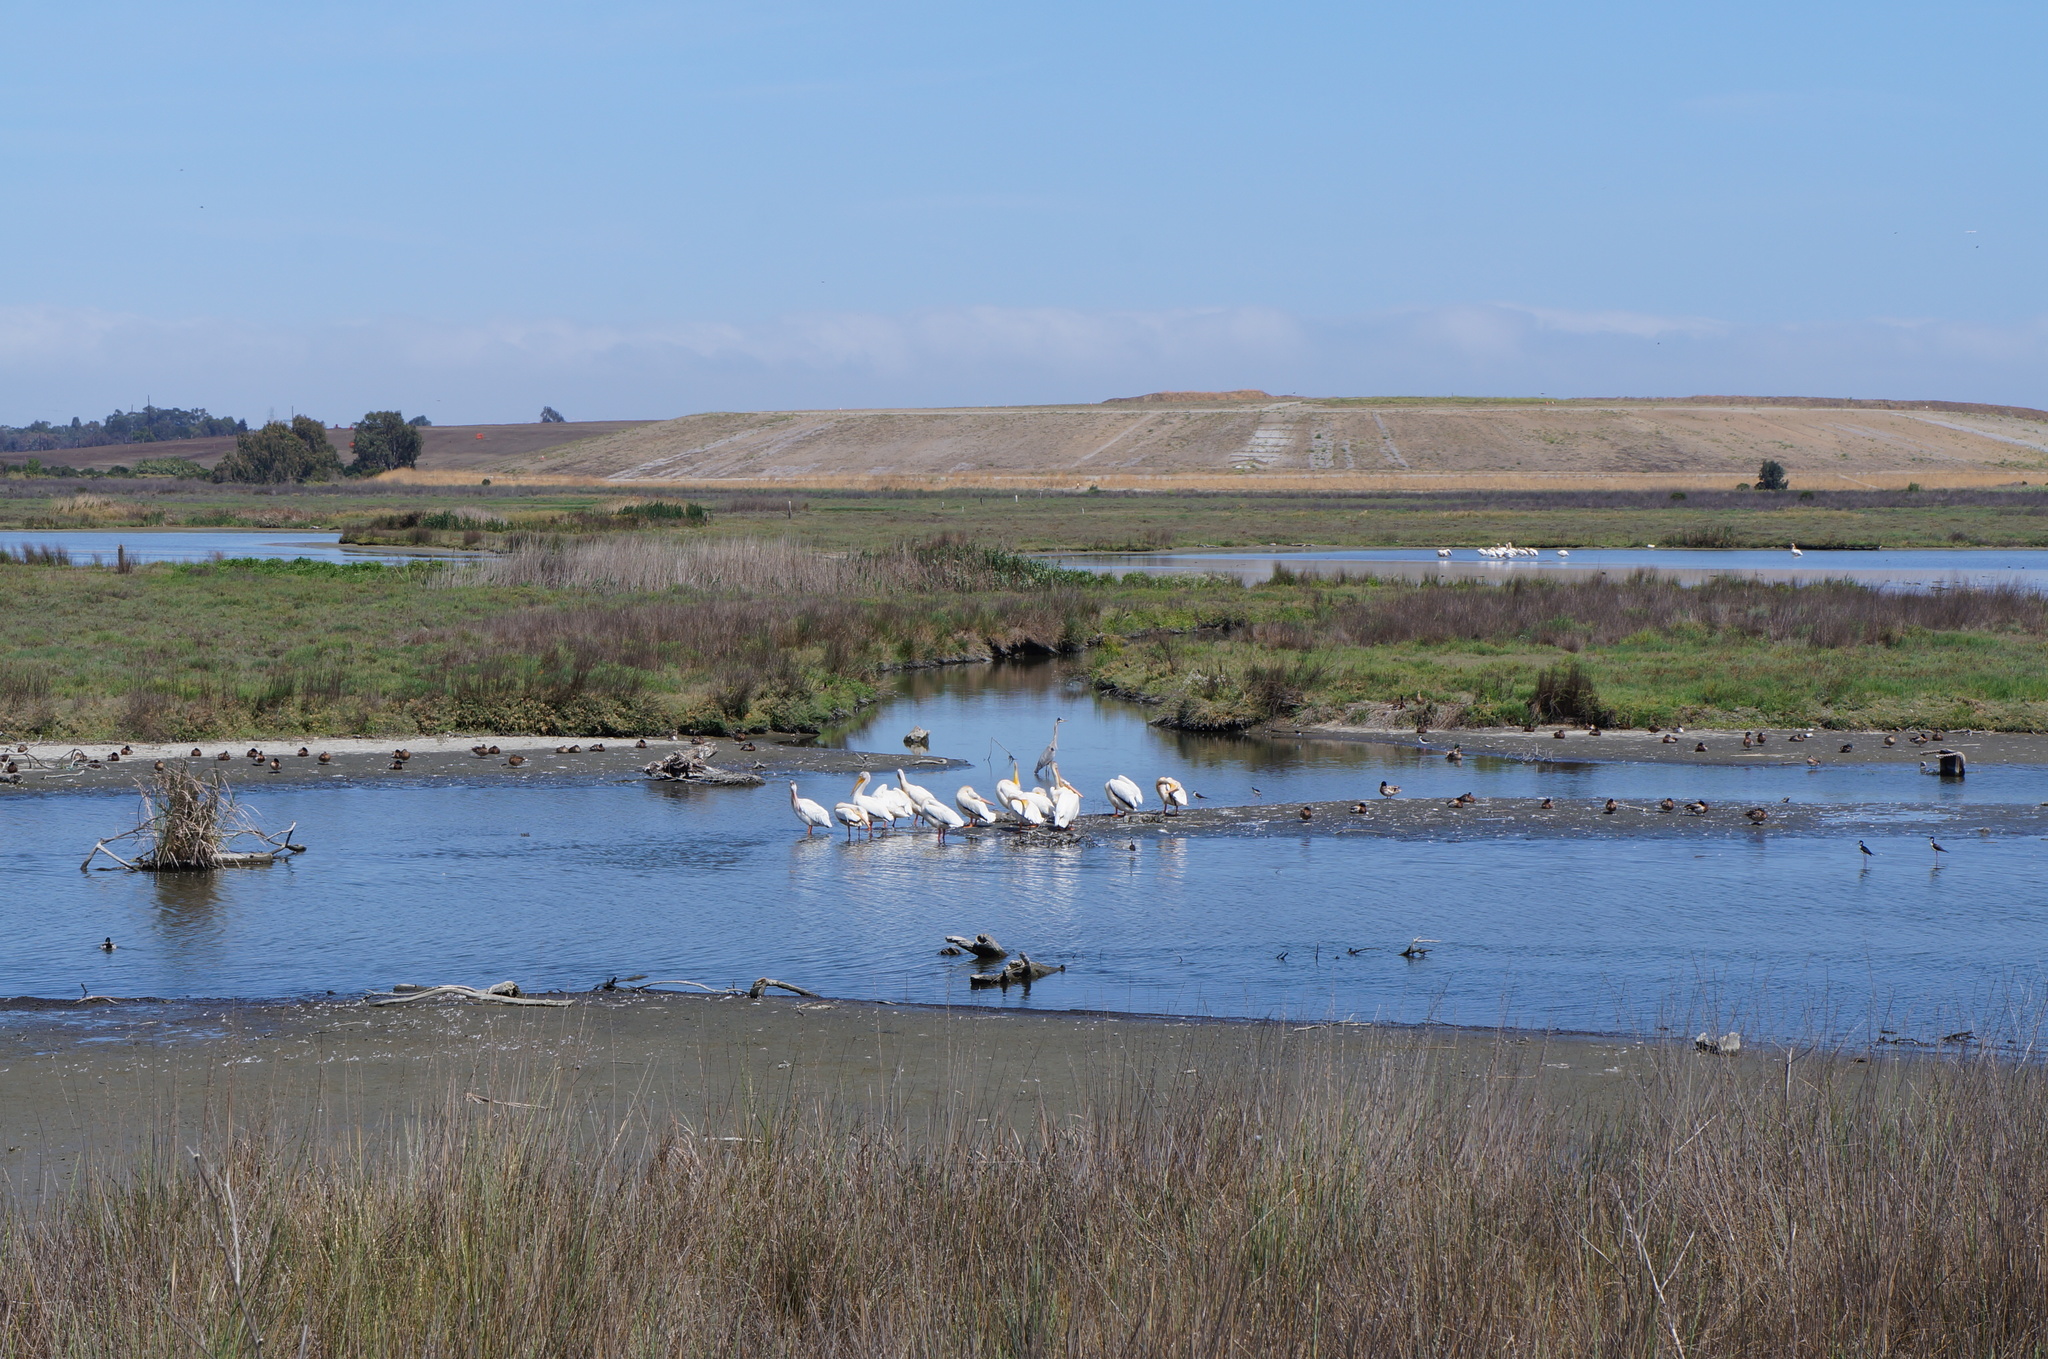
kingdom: Animalia
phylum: Chordata
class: Aves
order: Pelecaniformes
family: Pelecanidae
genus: Pelecanus
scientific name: Pelecanus erythrorhynchos
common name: American white pelican
